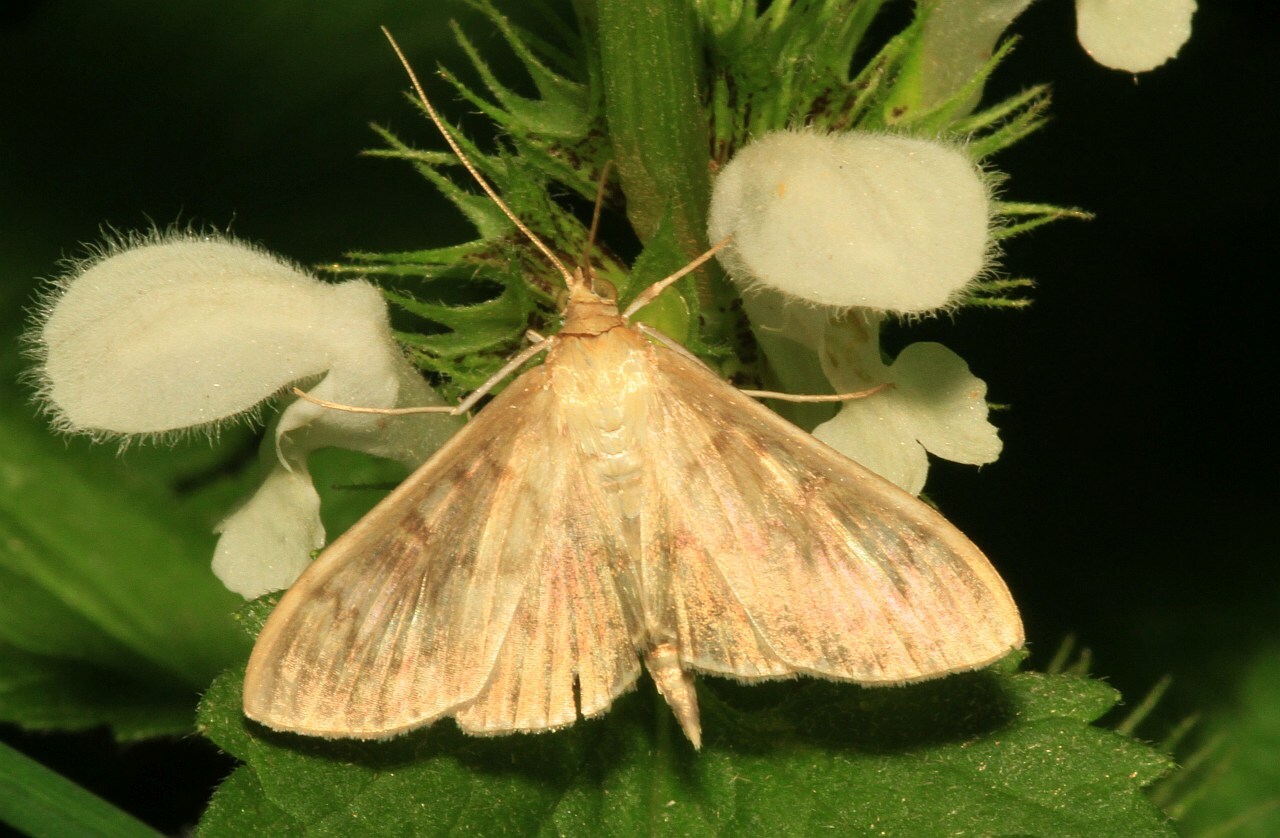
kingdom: Animalia
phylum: Arthropoda
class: Insecta
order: Lepidoptera
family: Crambidae
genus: Patania
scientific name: Patania ruralis
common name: Mother of pearl
